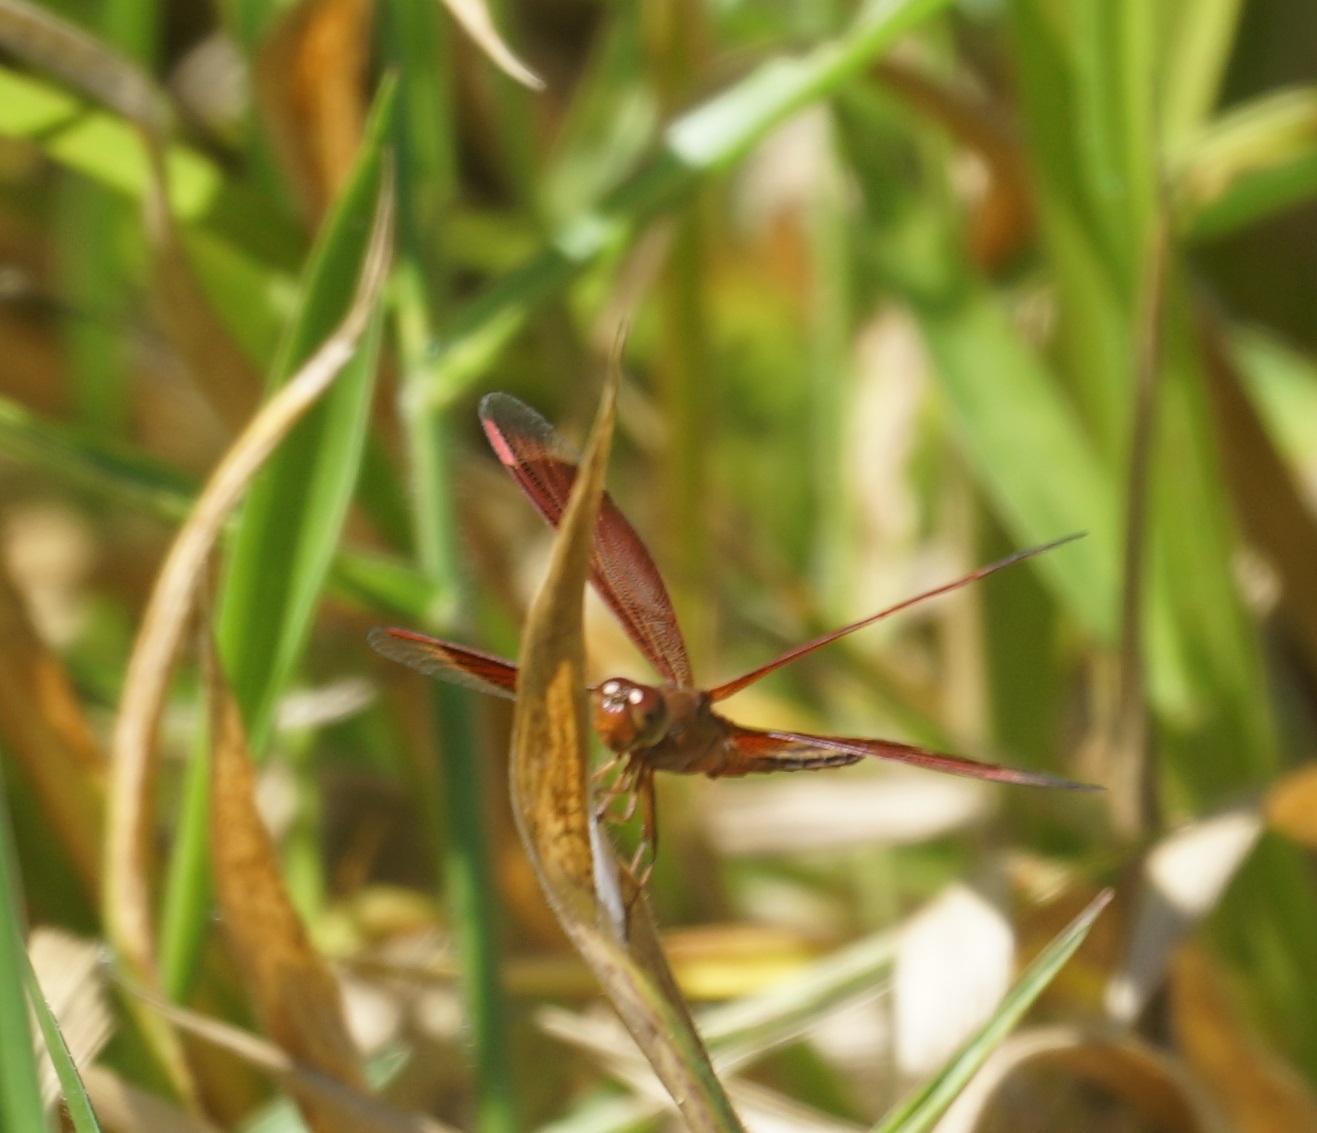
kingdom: Animalia
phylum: Arthropoda
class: Insecta
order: Odonata
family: Libellulidae
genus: Neurothemis
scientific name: Neurothemis stigmatizans
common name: Painted grasshawk
